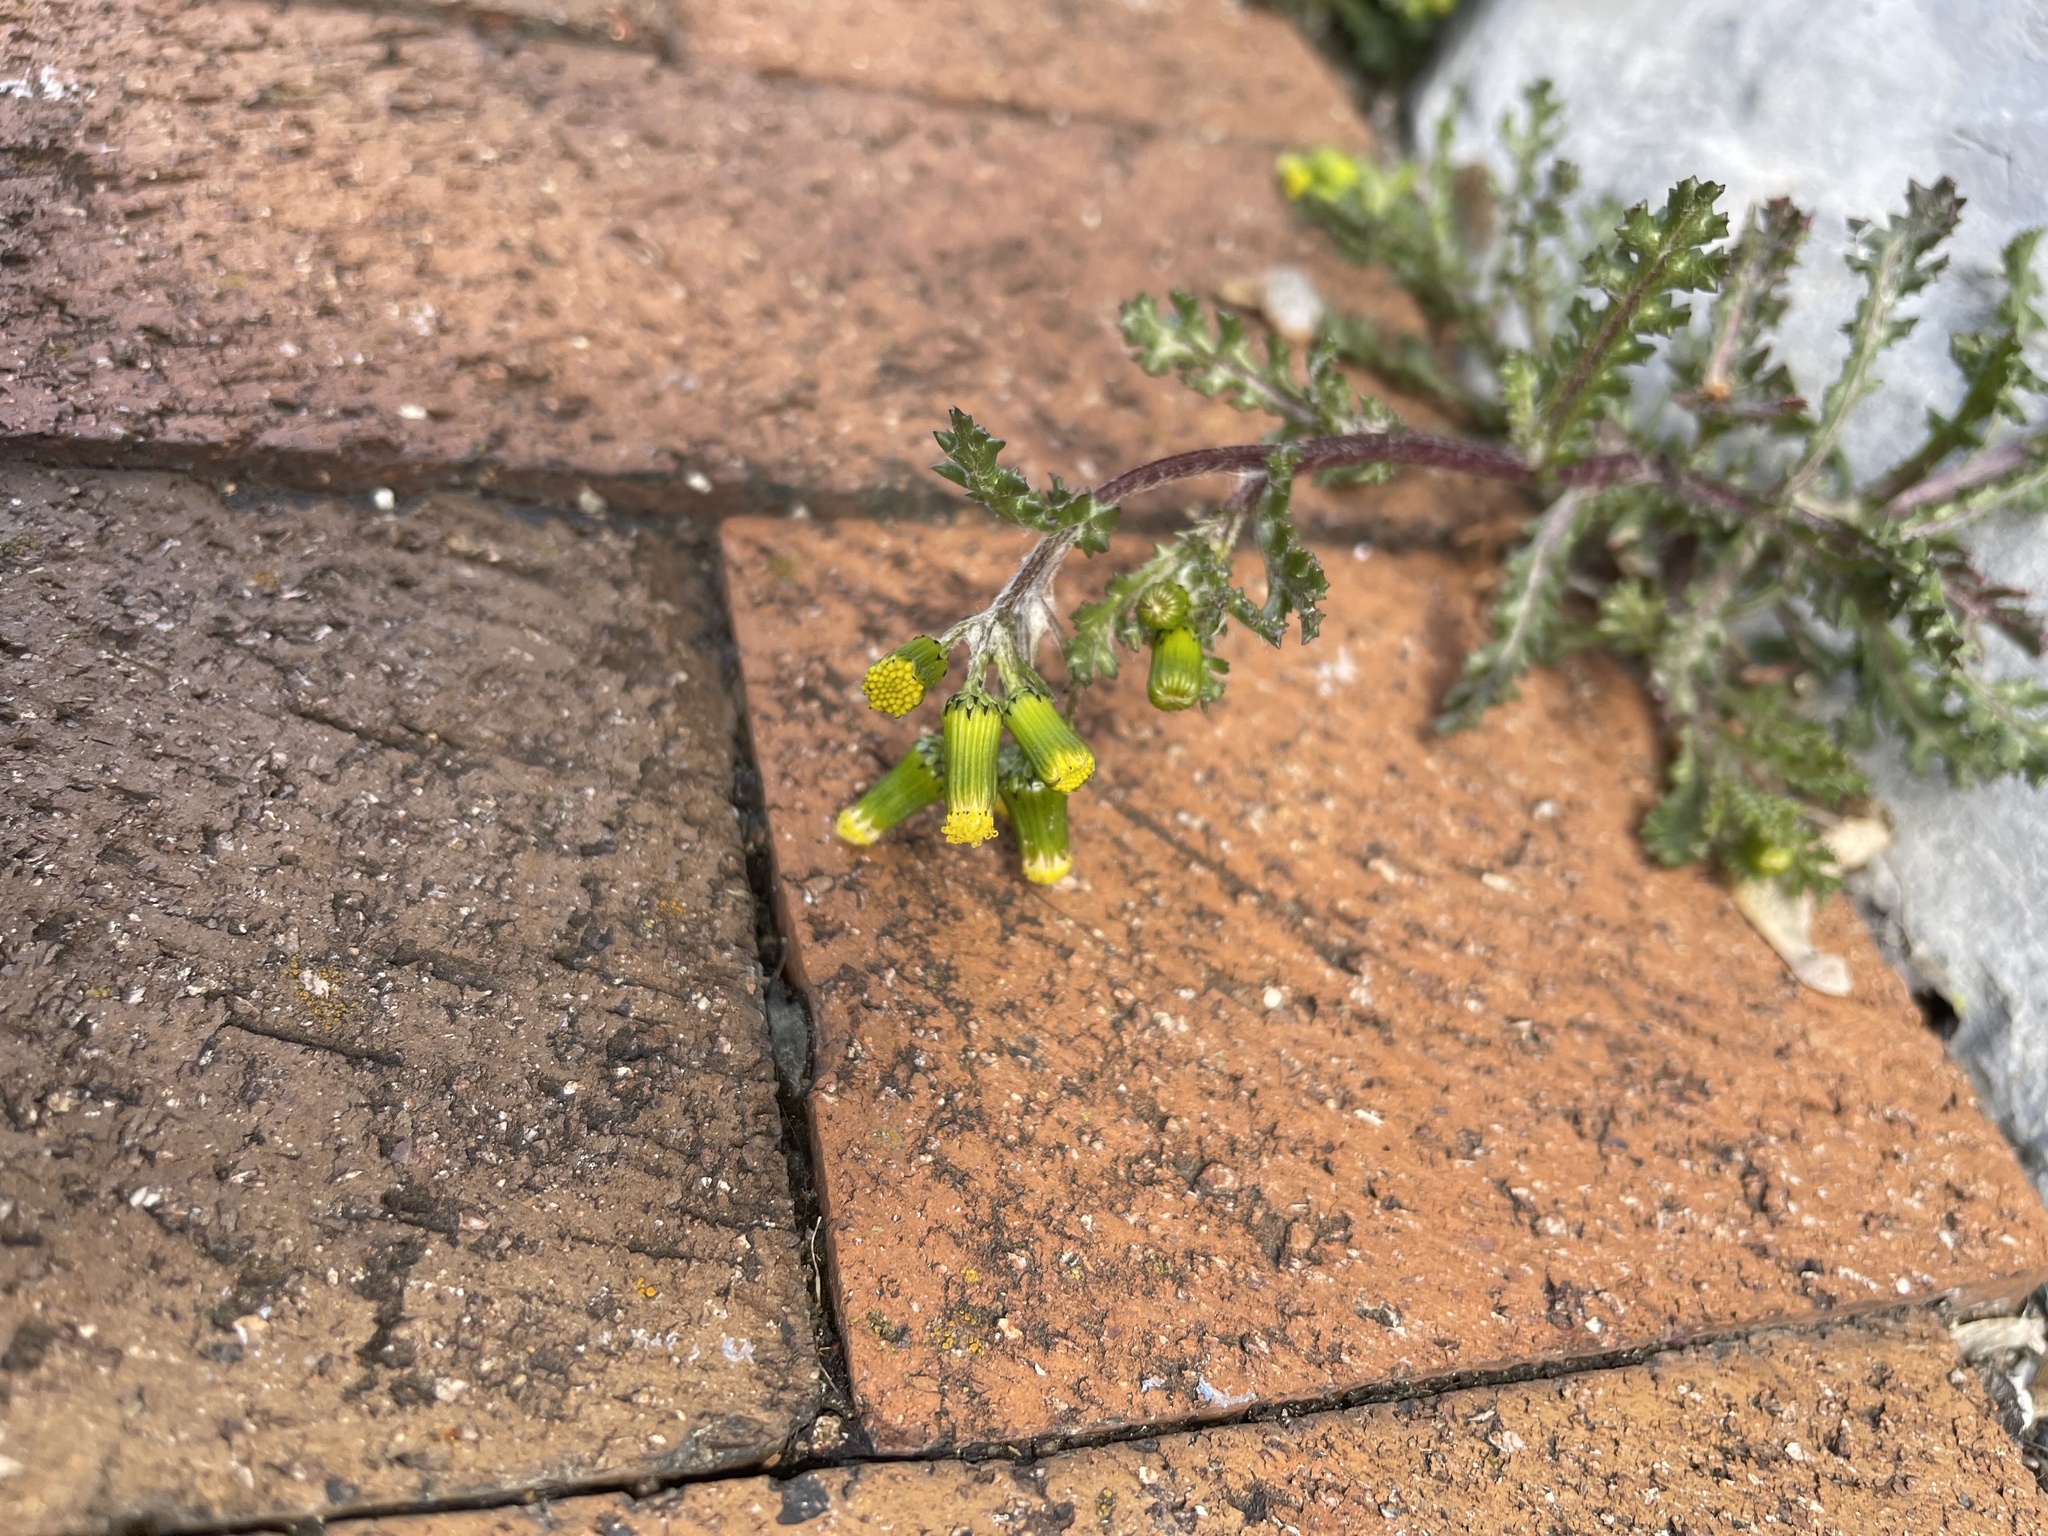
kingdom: Plantae
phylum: Tracheophyta
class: Magnoliopsida
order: Asterales
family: Asteraceae
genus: Senecio
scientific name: Senecio vulgaris
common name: Old-man-in-the-spring
